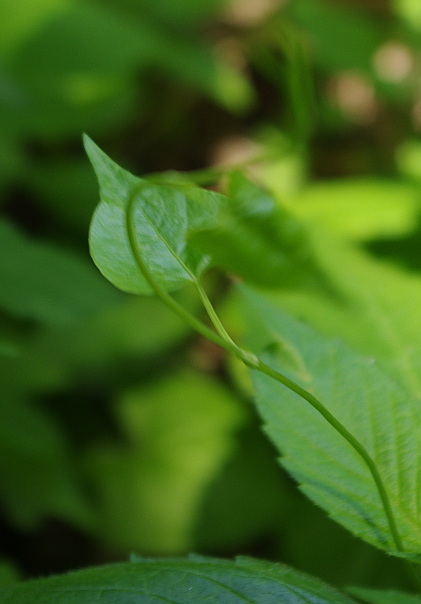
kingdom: Plantae
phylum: Tracheophyta
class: Magnoliopsida
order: Caryophyllales
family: Polygonaceae
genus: Fallopia
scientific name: Fallopia convolvulus
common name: Black bindweed
